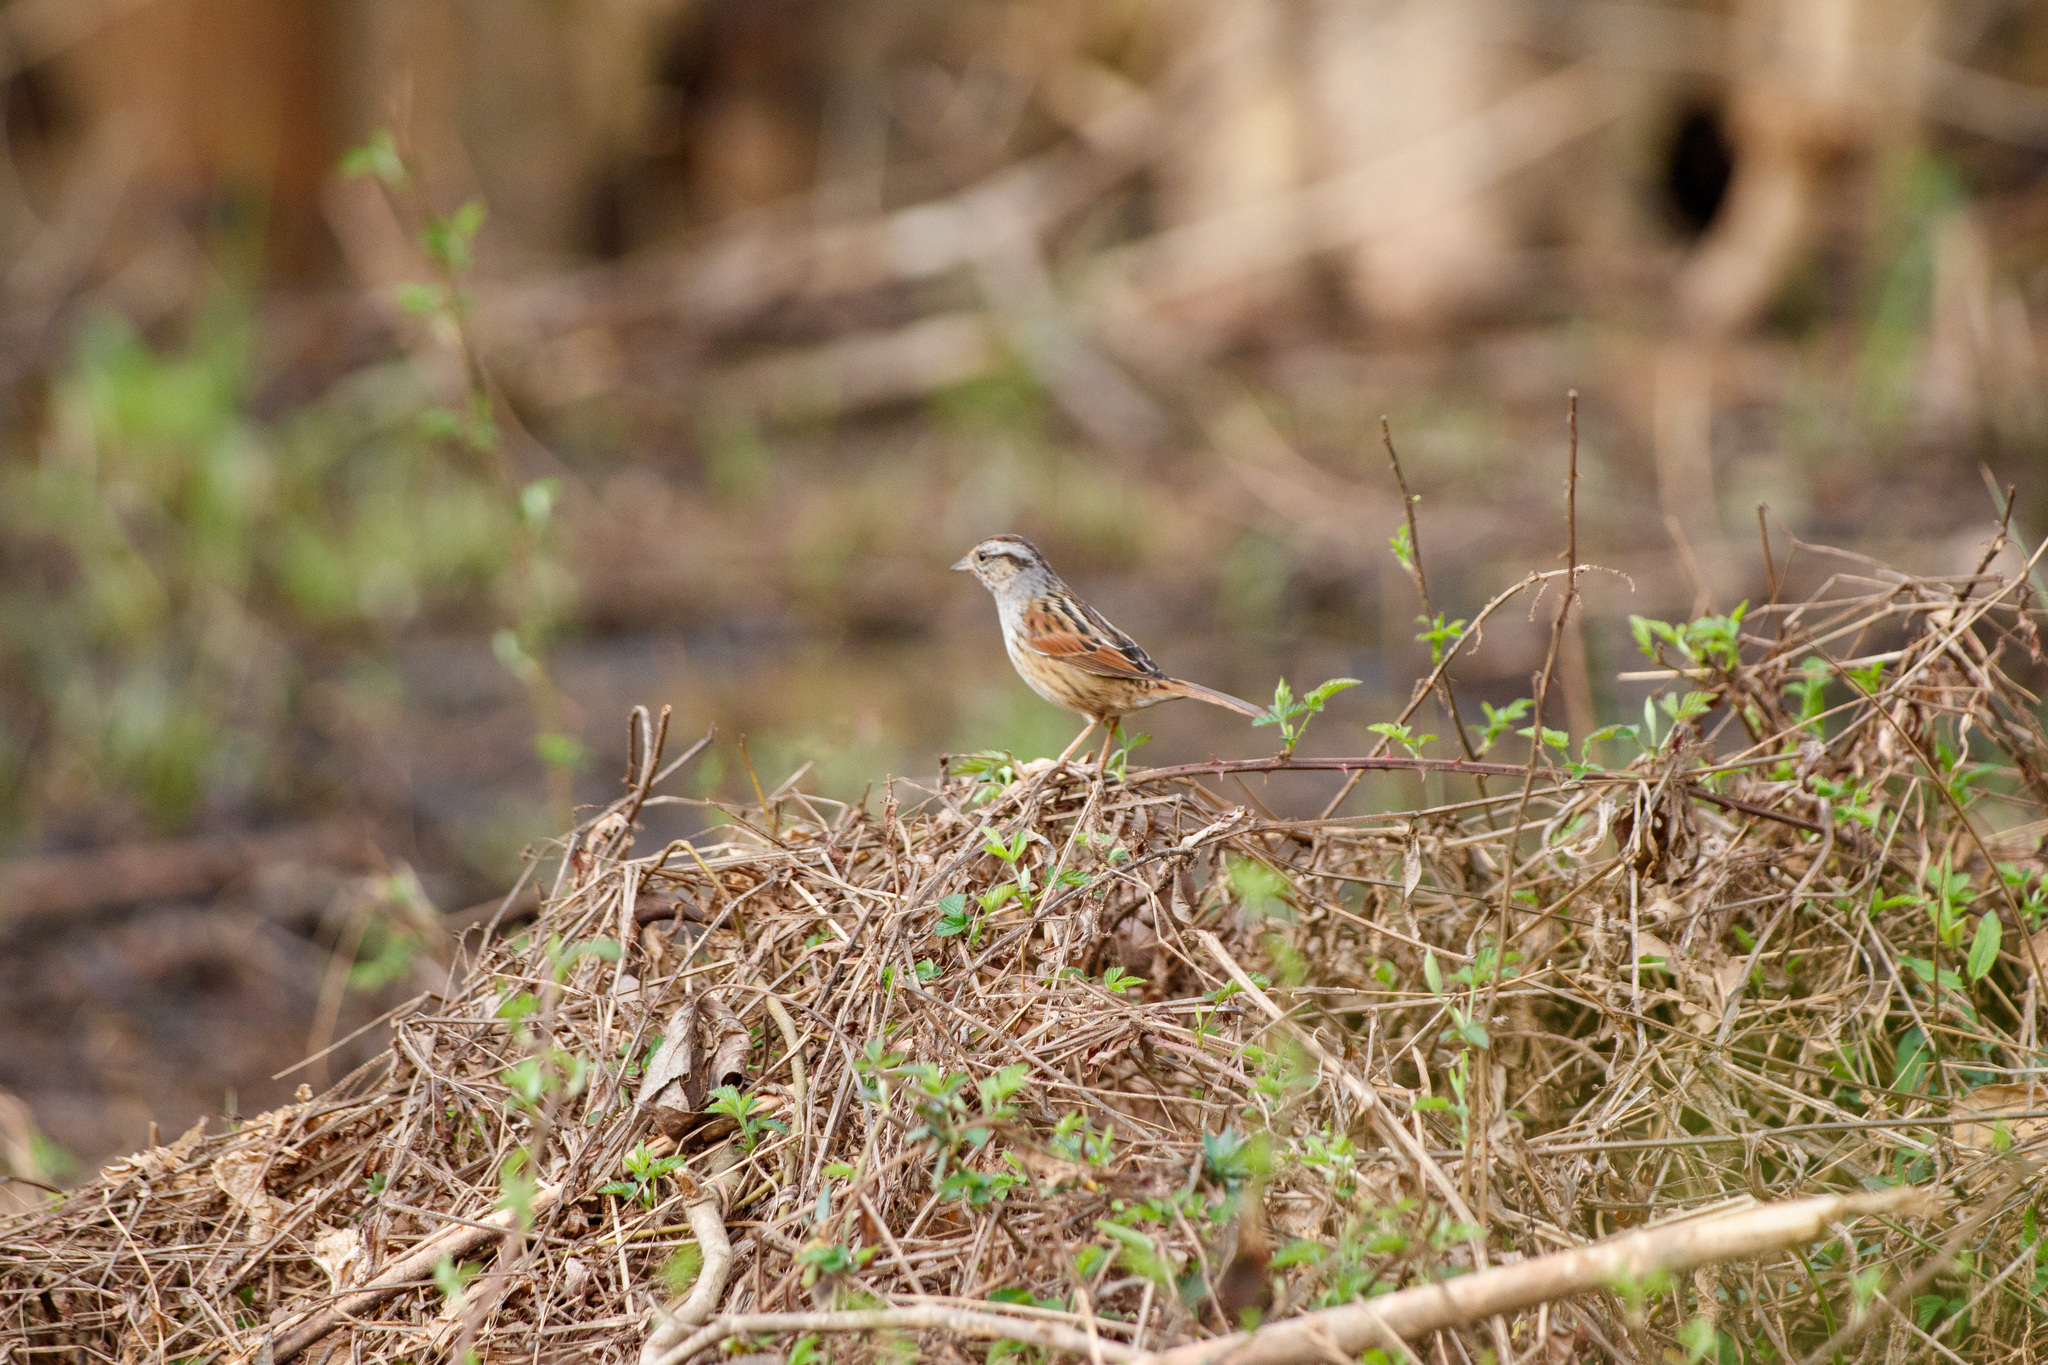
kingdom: Animalia
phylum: Chordata
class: Aves
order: Passeriformes
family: Passerellidae
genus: Melospiza
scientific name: Melospiza georgiana
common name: Swamp sparrow
